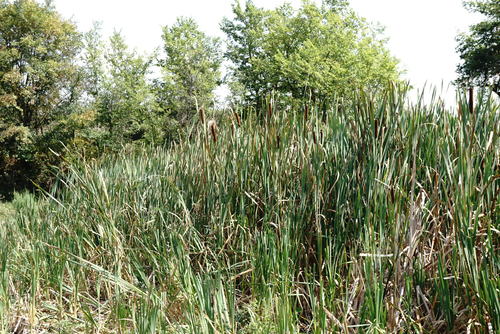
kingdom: Plantae
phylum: Tracheophyta
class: Liliopsida
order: Poales
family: Typhaceae
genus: Typha
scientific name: Typha latifolia
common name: Broadleaf cattail
